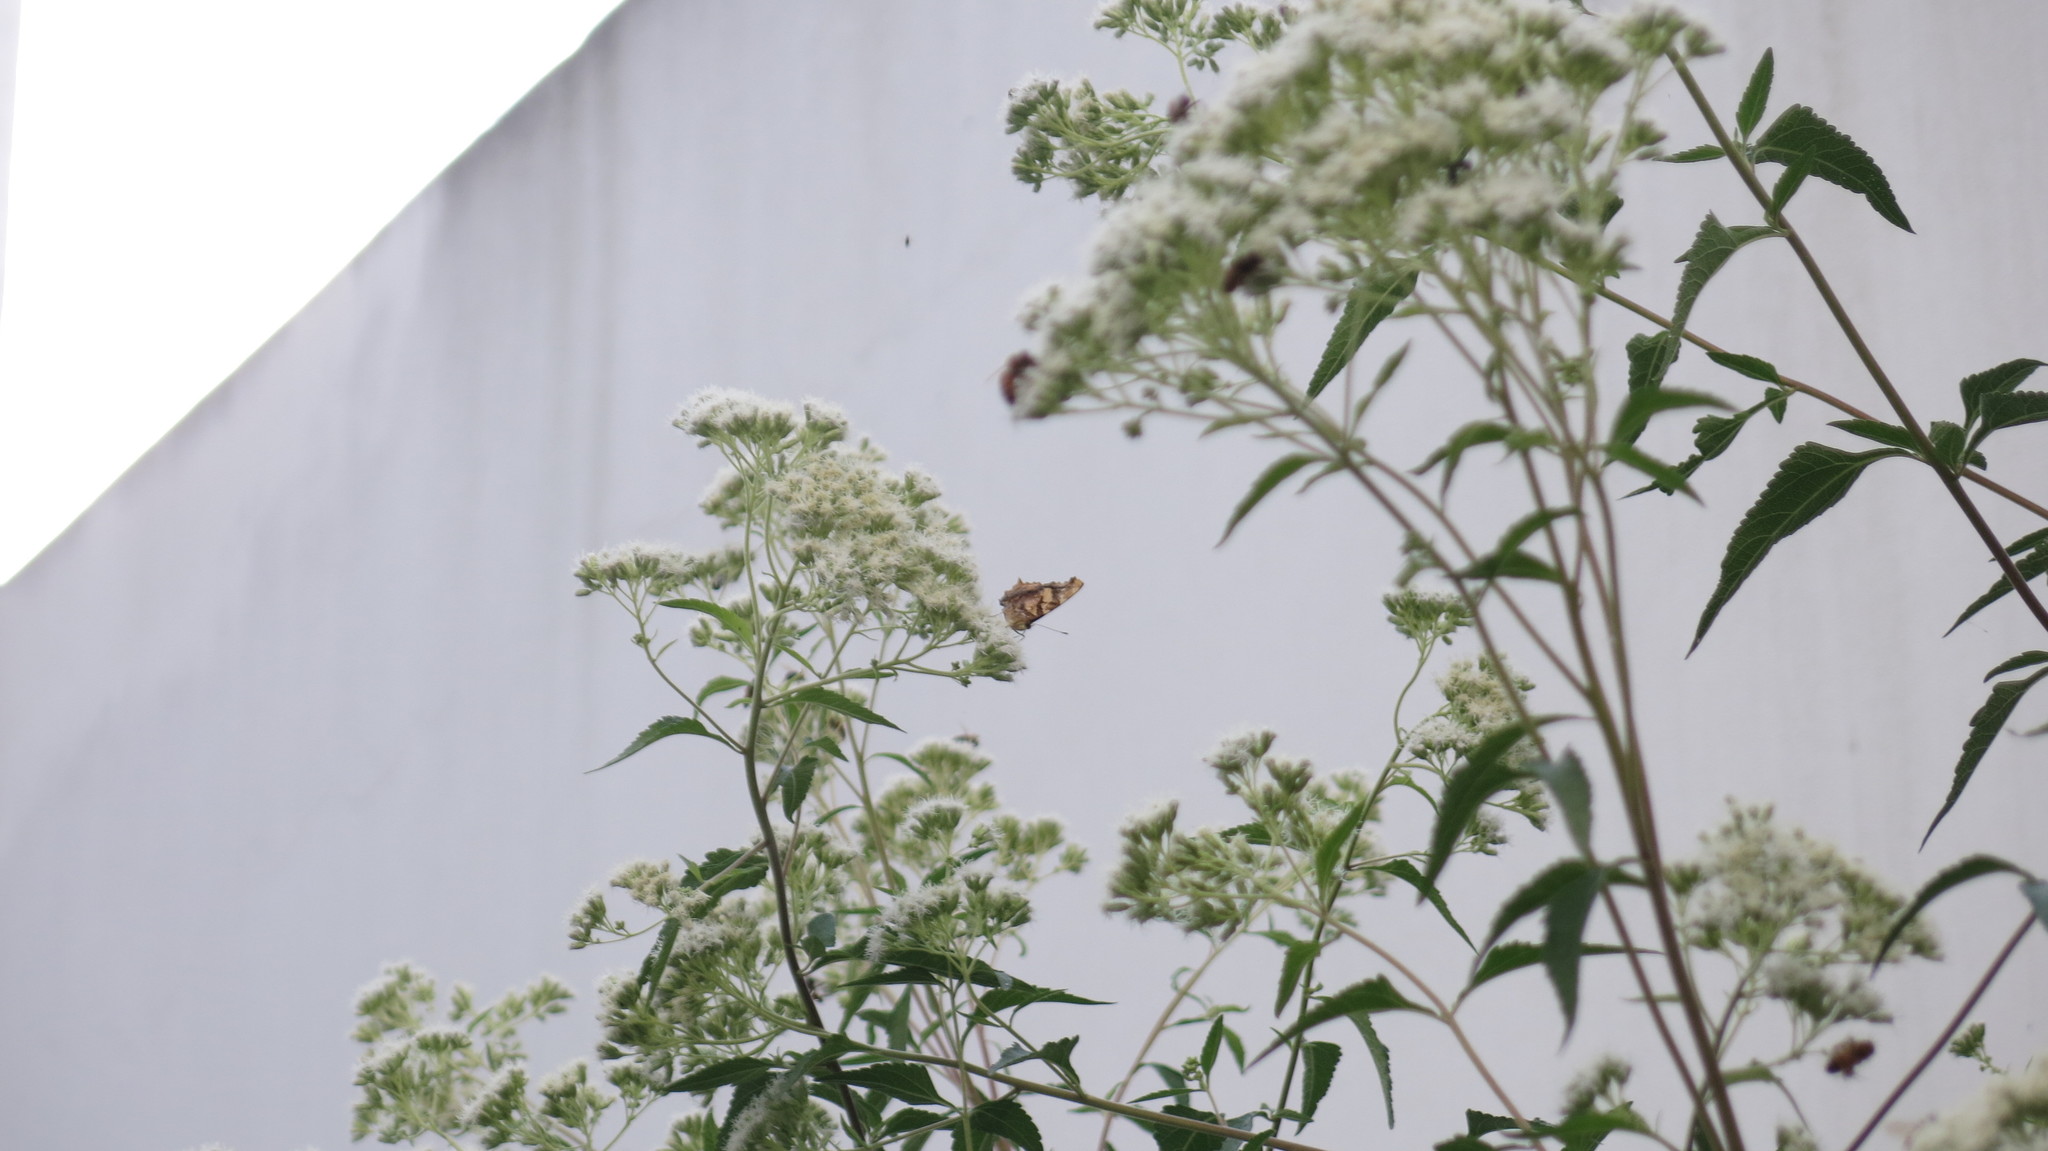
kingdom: Animalia
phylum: Arthropoda
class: Insecta
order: Lepidoptera
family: Nymphalidae
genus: Hypanartia
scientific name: Hypanartia bella
